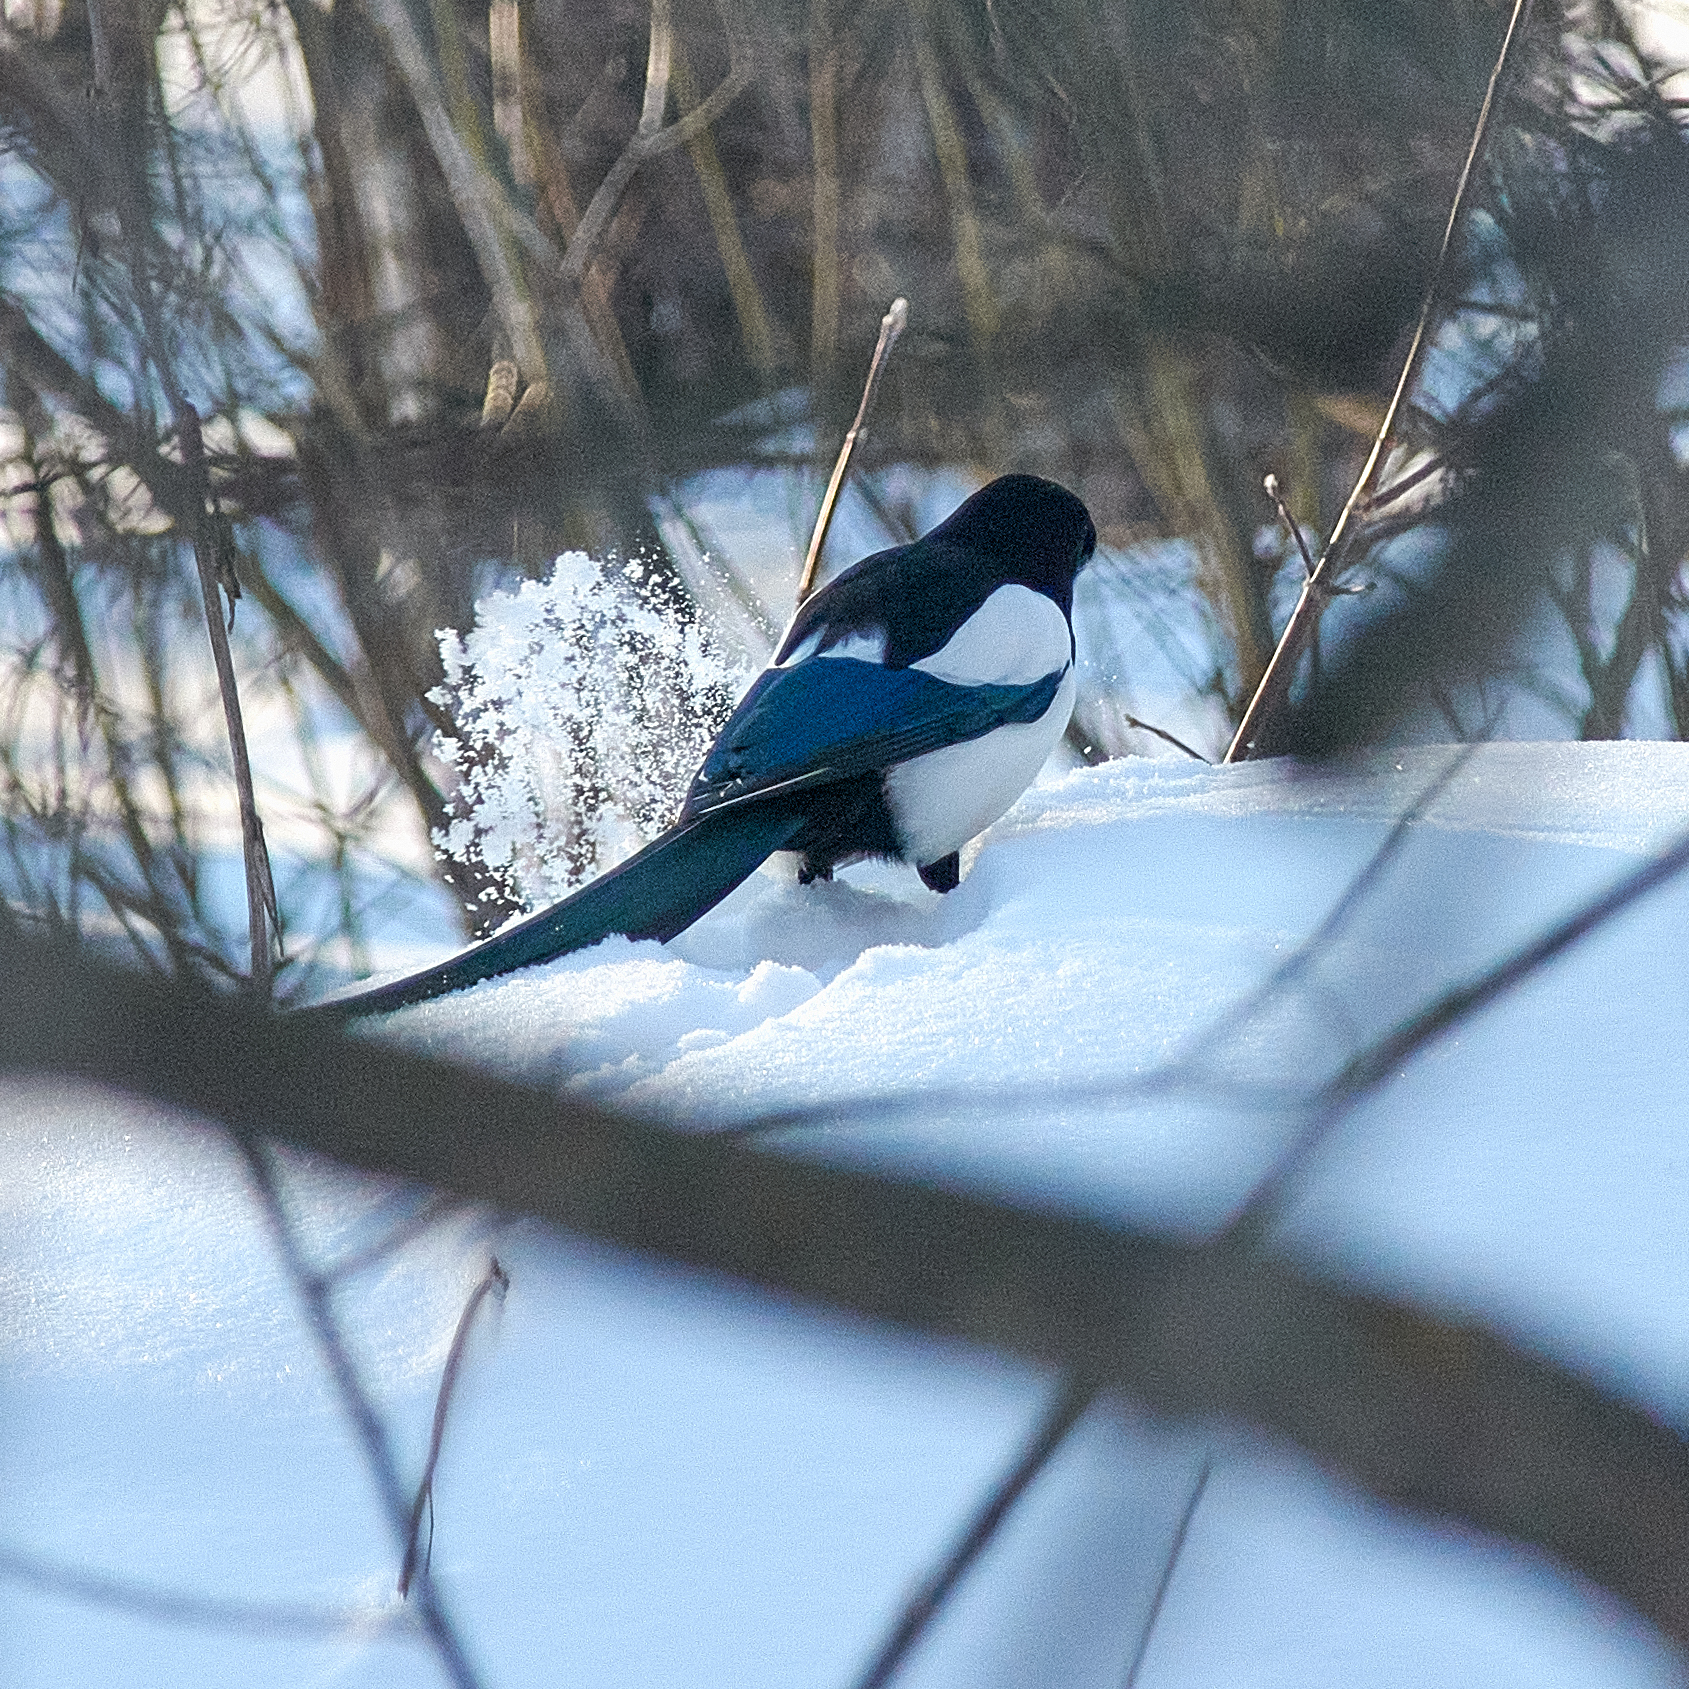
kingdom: Animalia
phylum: Chordata
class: Aves
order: Passeriformes
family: Corvidae
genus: Pica
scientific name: Pica pica
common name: Eurasian magpie
